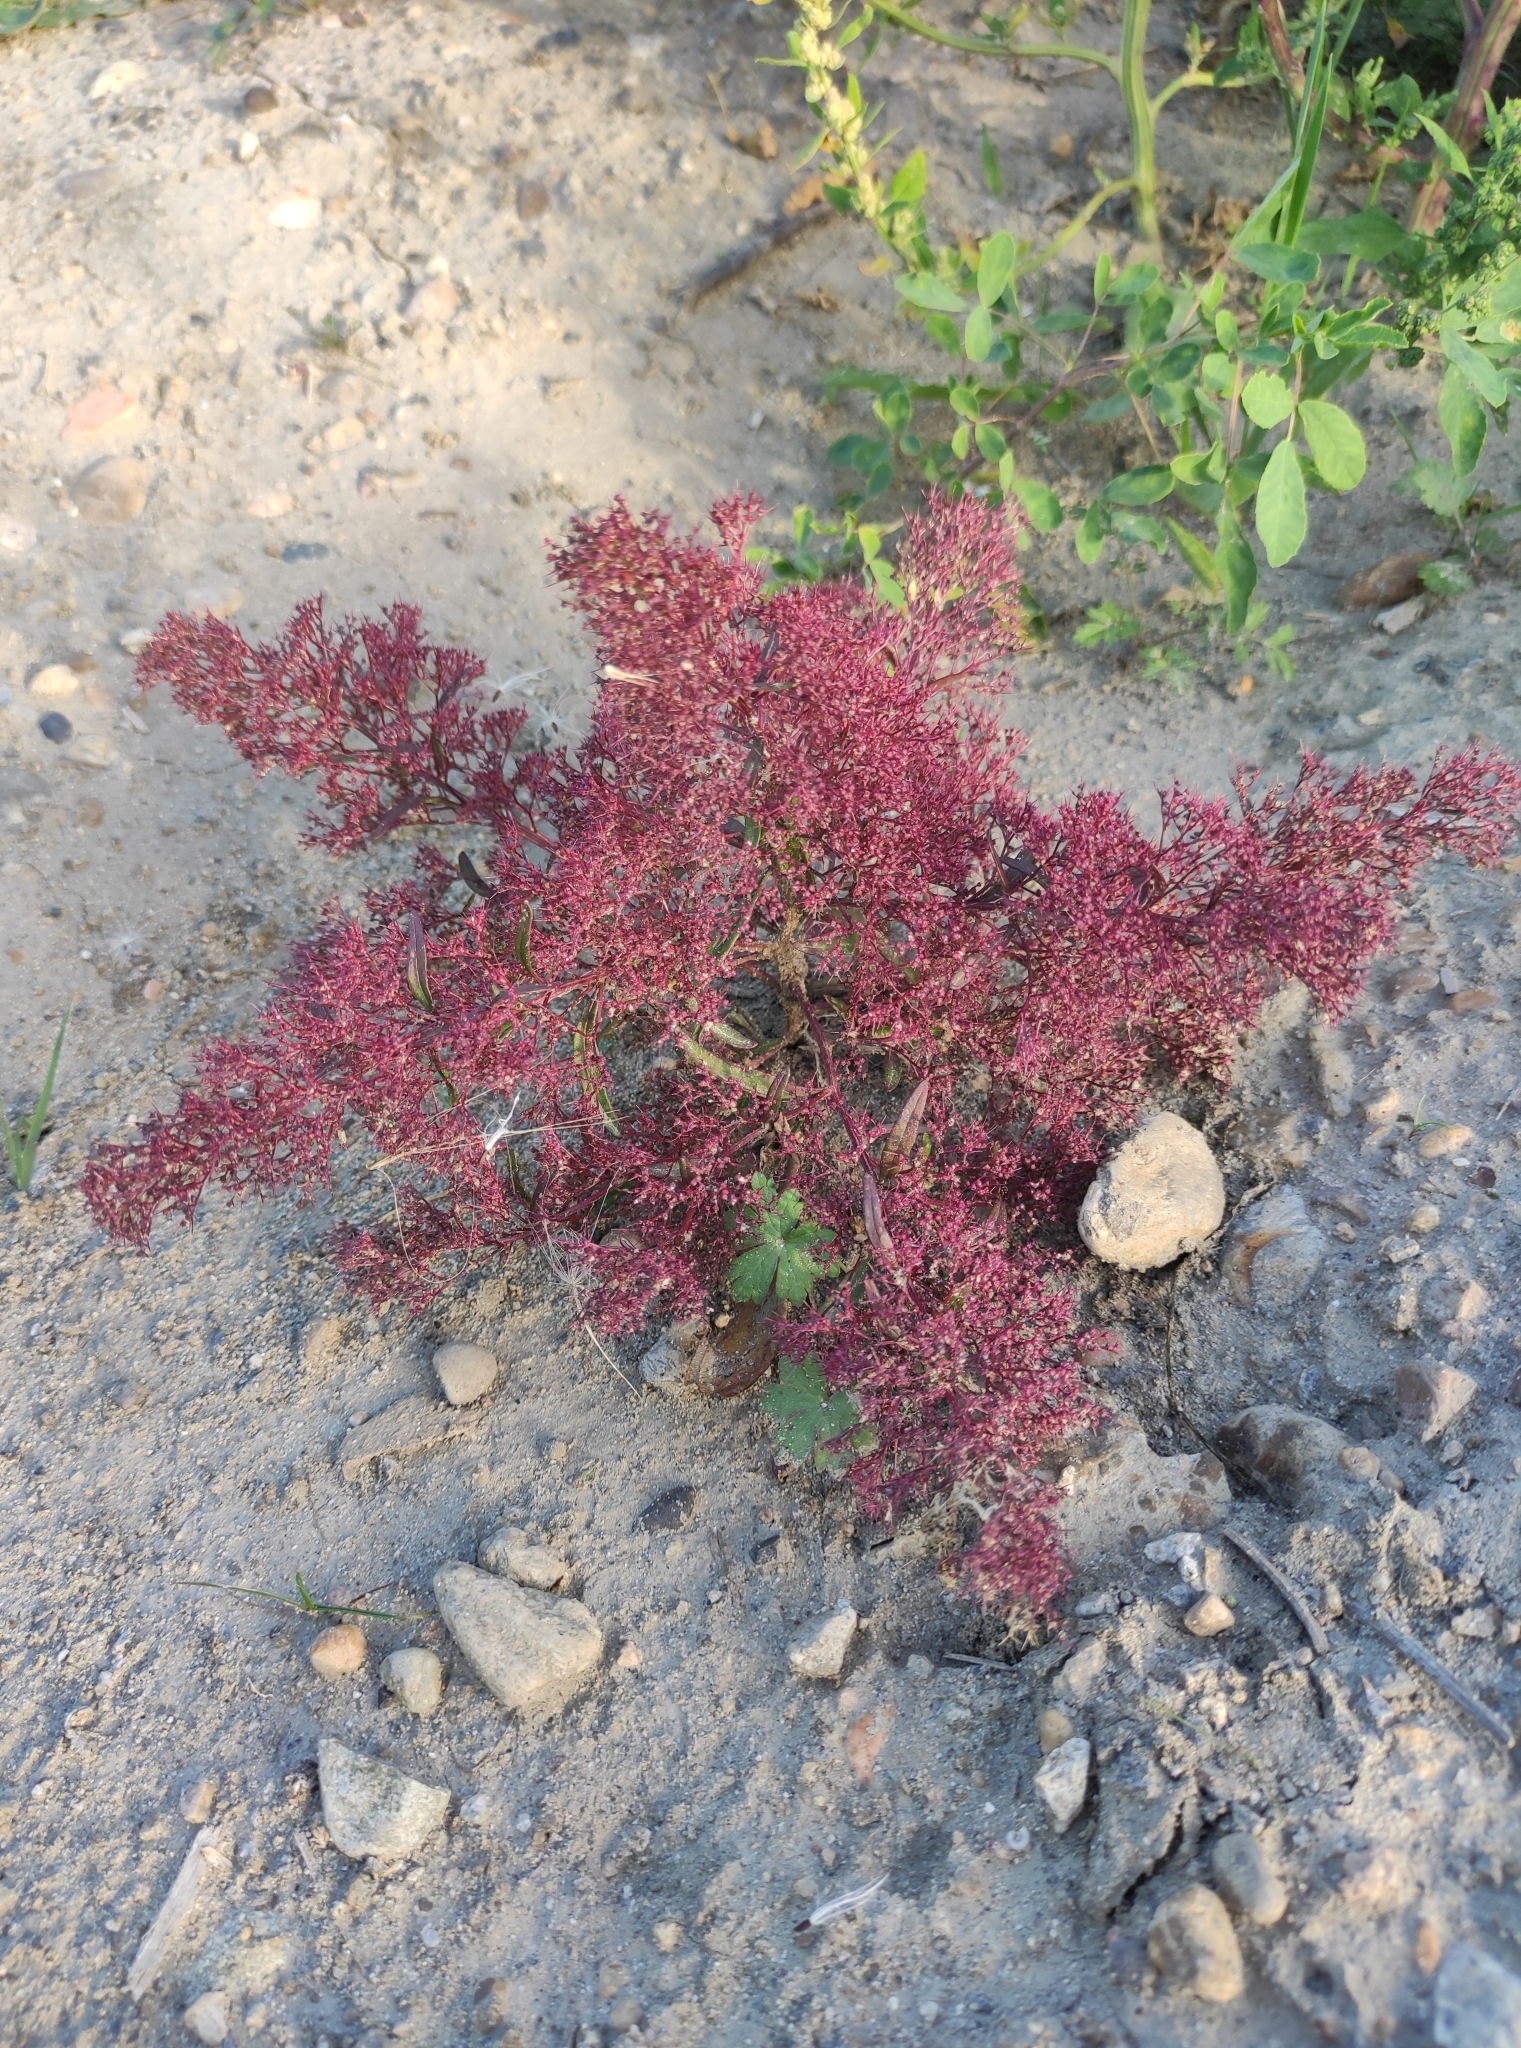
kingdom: Plantae
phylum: Tracheophyta
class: Magnoliopsida
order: Caryophyllales
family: Amaranthaceae
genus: Teloxys
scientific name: Teloxys aristata
